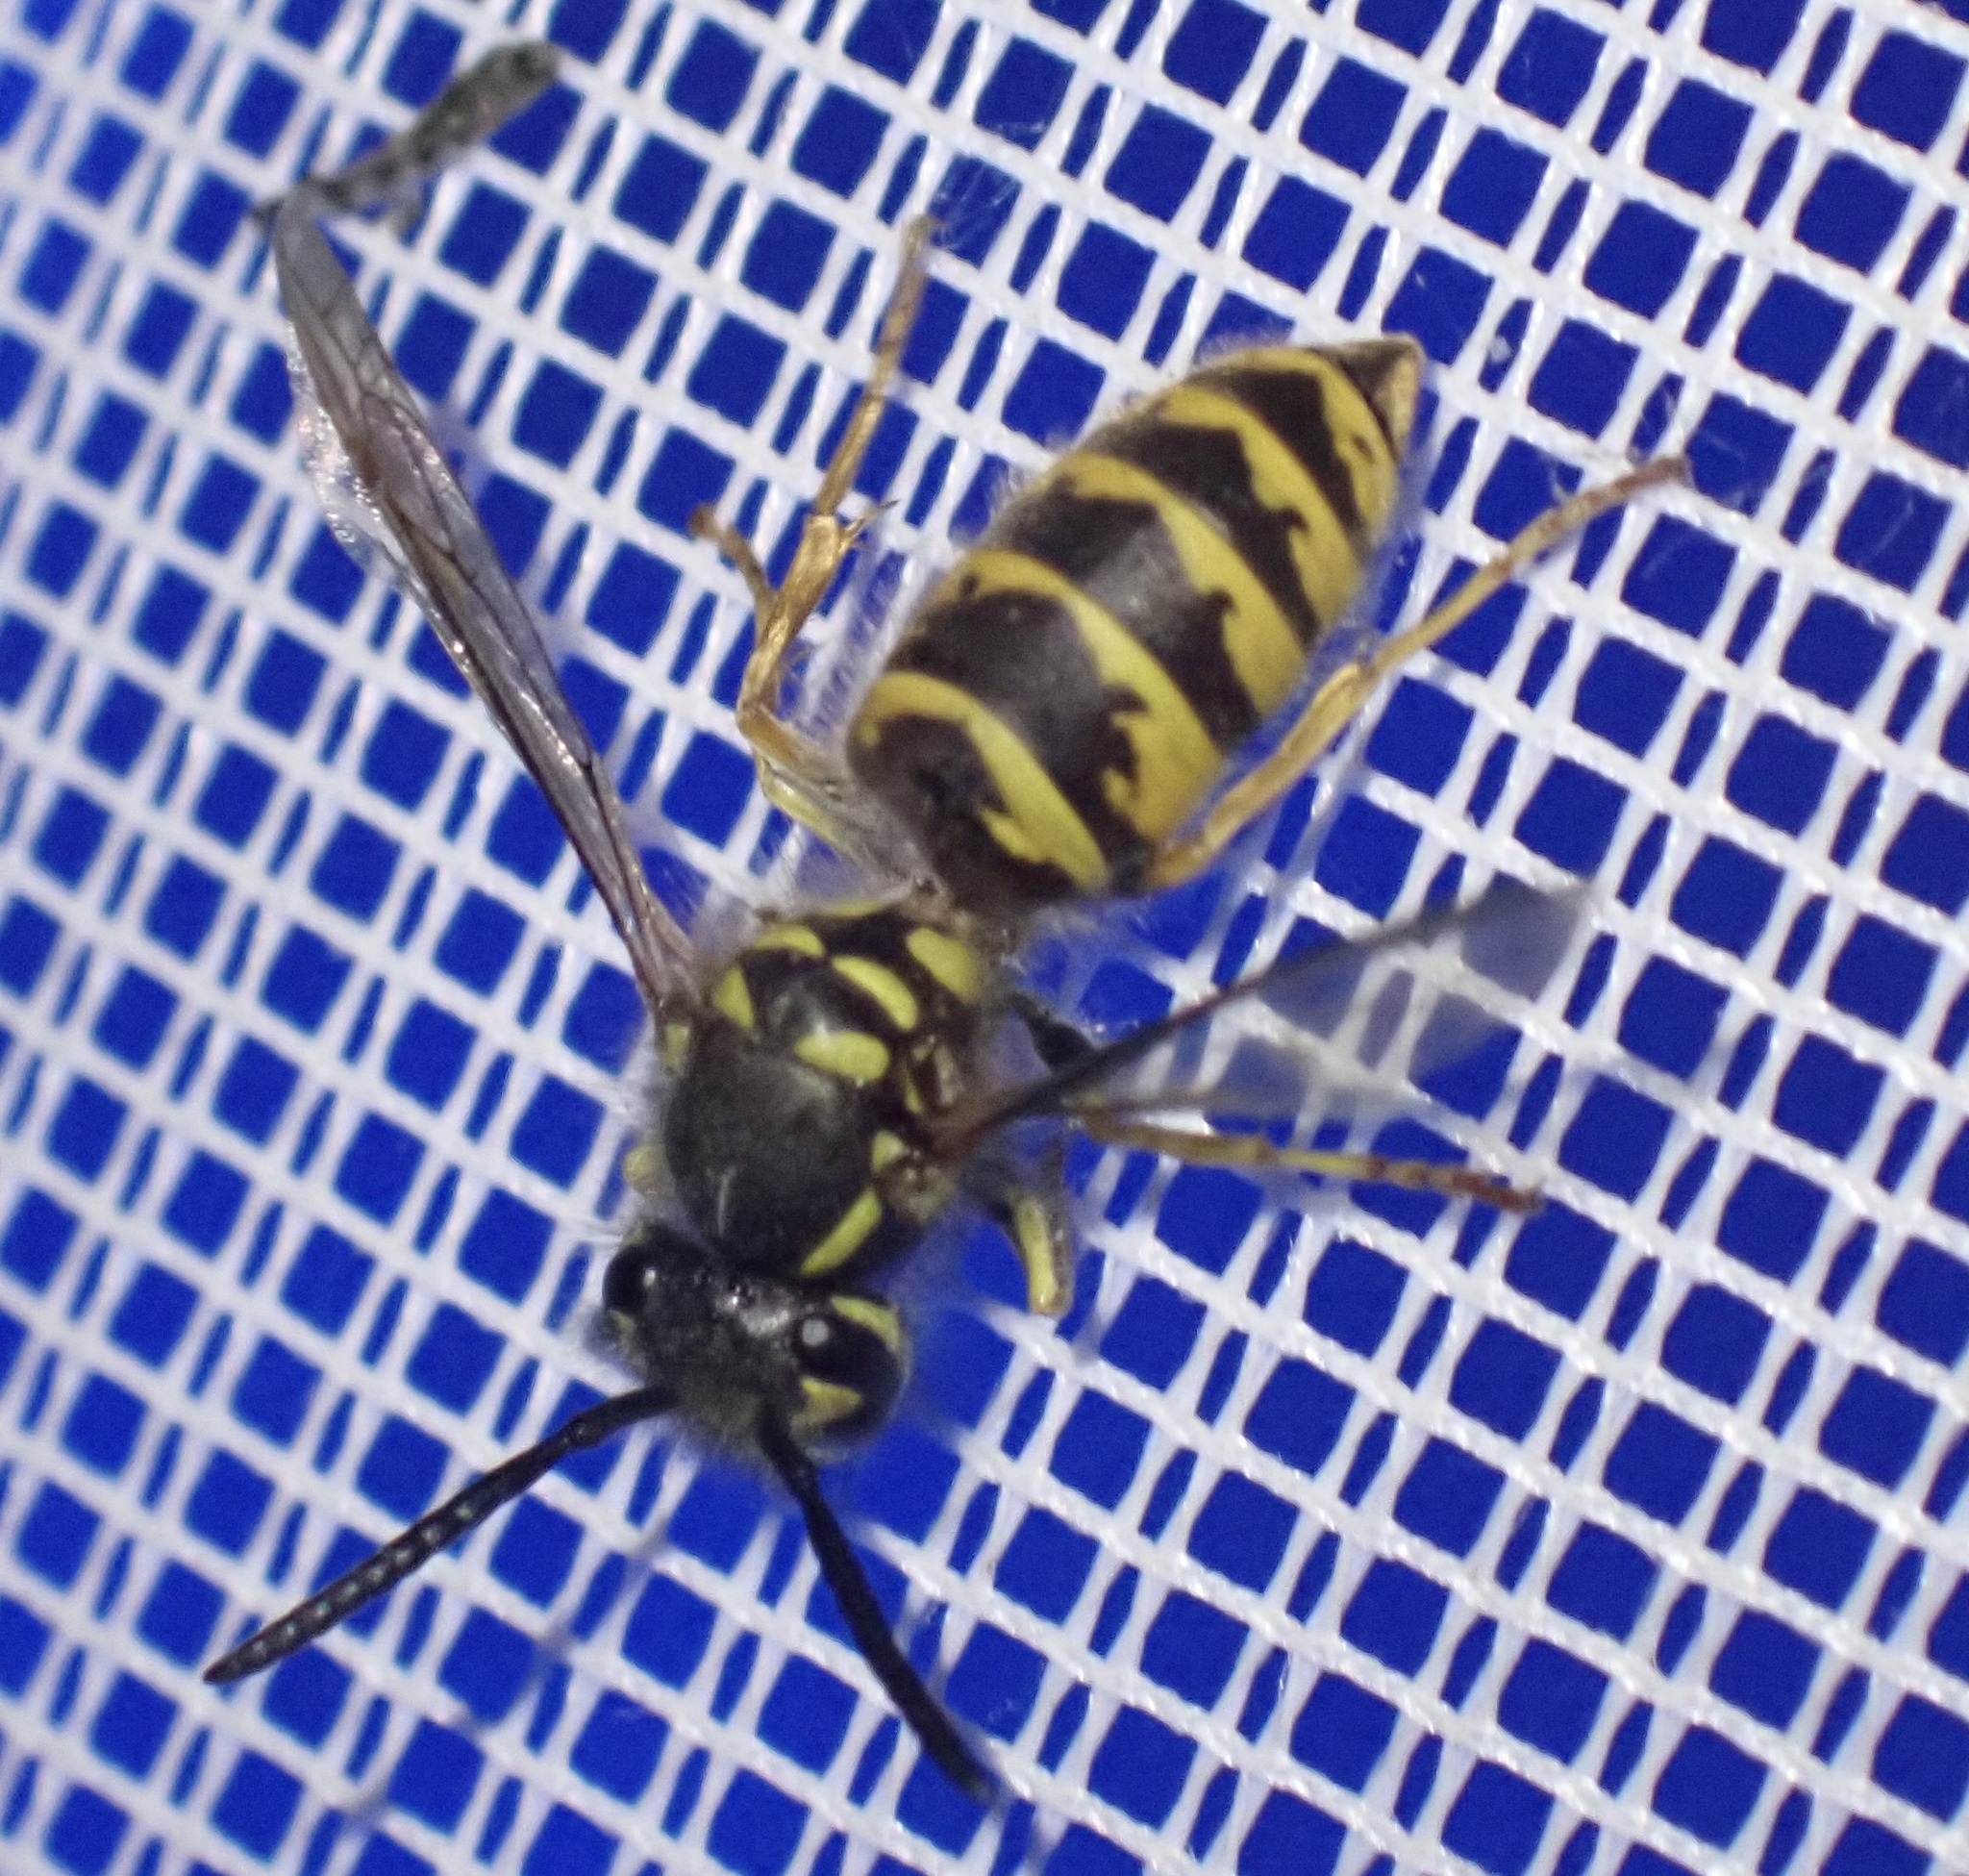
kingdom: Animalia
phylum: Arthropoda
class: Insecta
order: Hymenoptera
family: Vespidae
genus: Vespula
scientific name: Vespula vulgaris
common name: Common wasp
